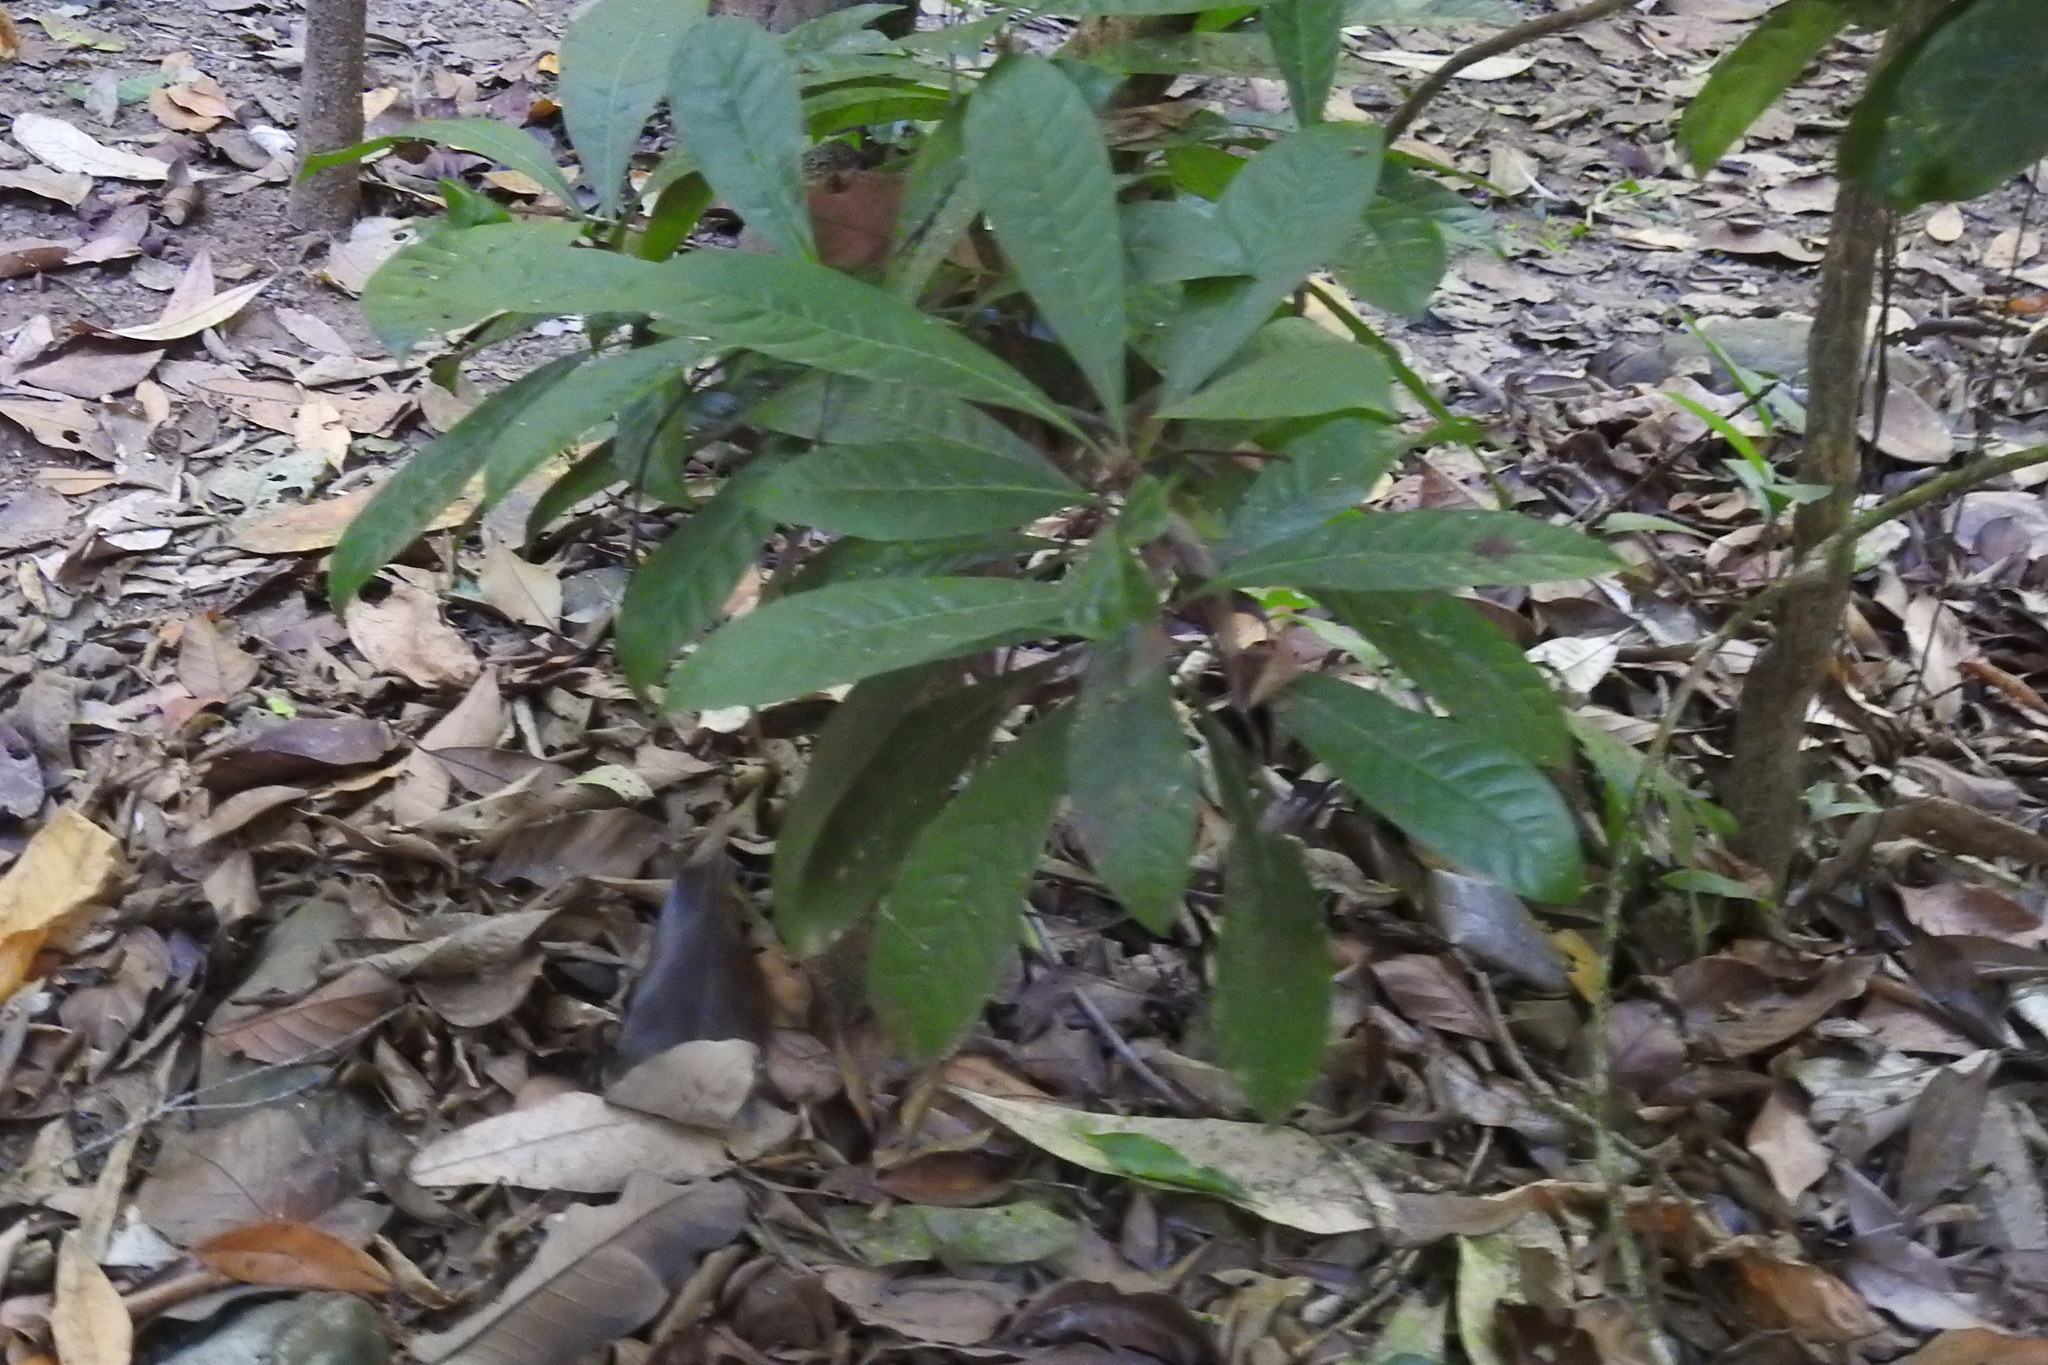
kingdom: Plantae
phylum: Tracheophyta
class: Magnoliopsida
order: Sapindales
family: Rutaceae
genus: Erythrochiton
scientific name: Erythrochiton gymnanthus
